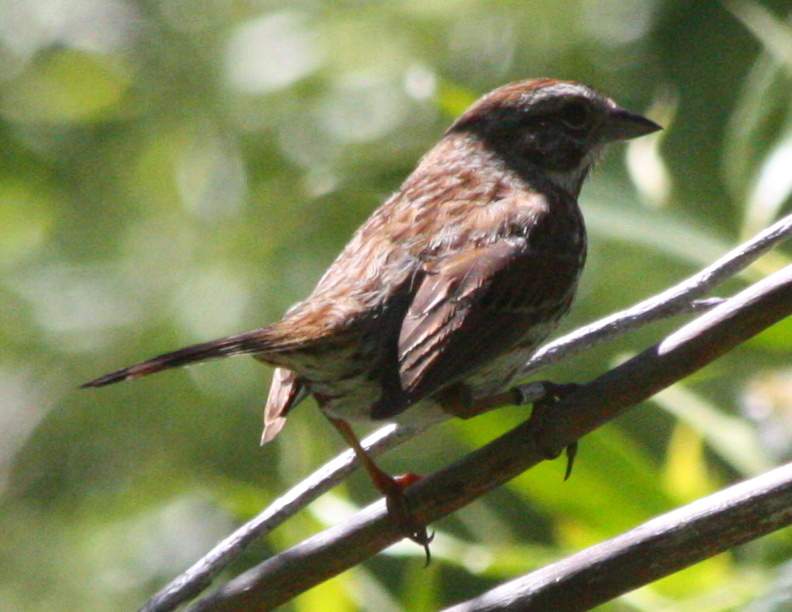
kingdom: Animalia
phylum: Chordata
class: Aves
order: Passeriformes
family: Passerellidae
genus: Melospiza
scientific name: Melospiza melodia
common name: Song sparrow
